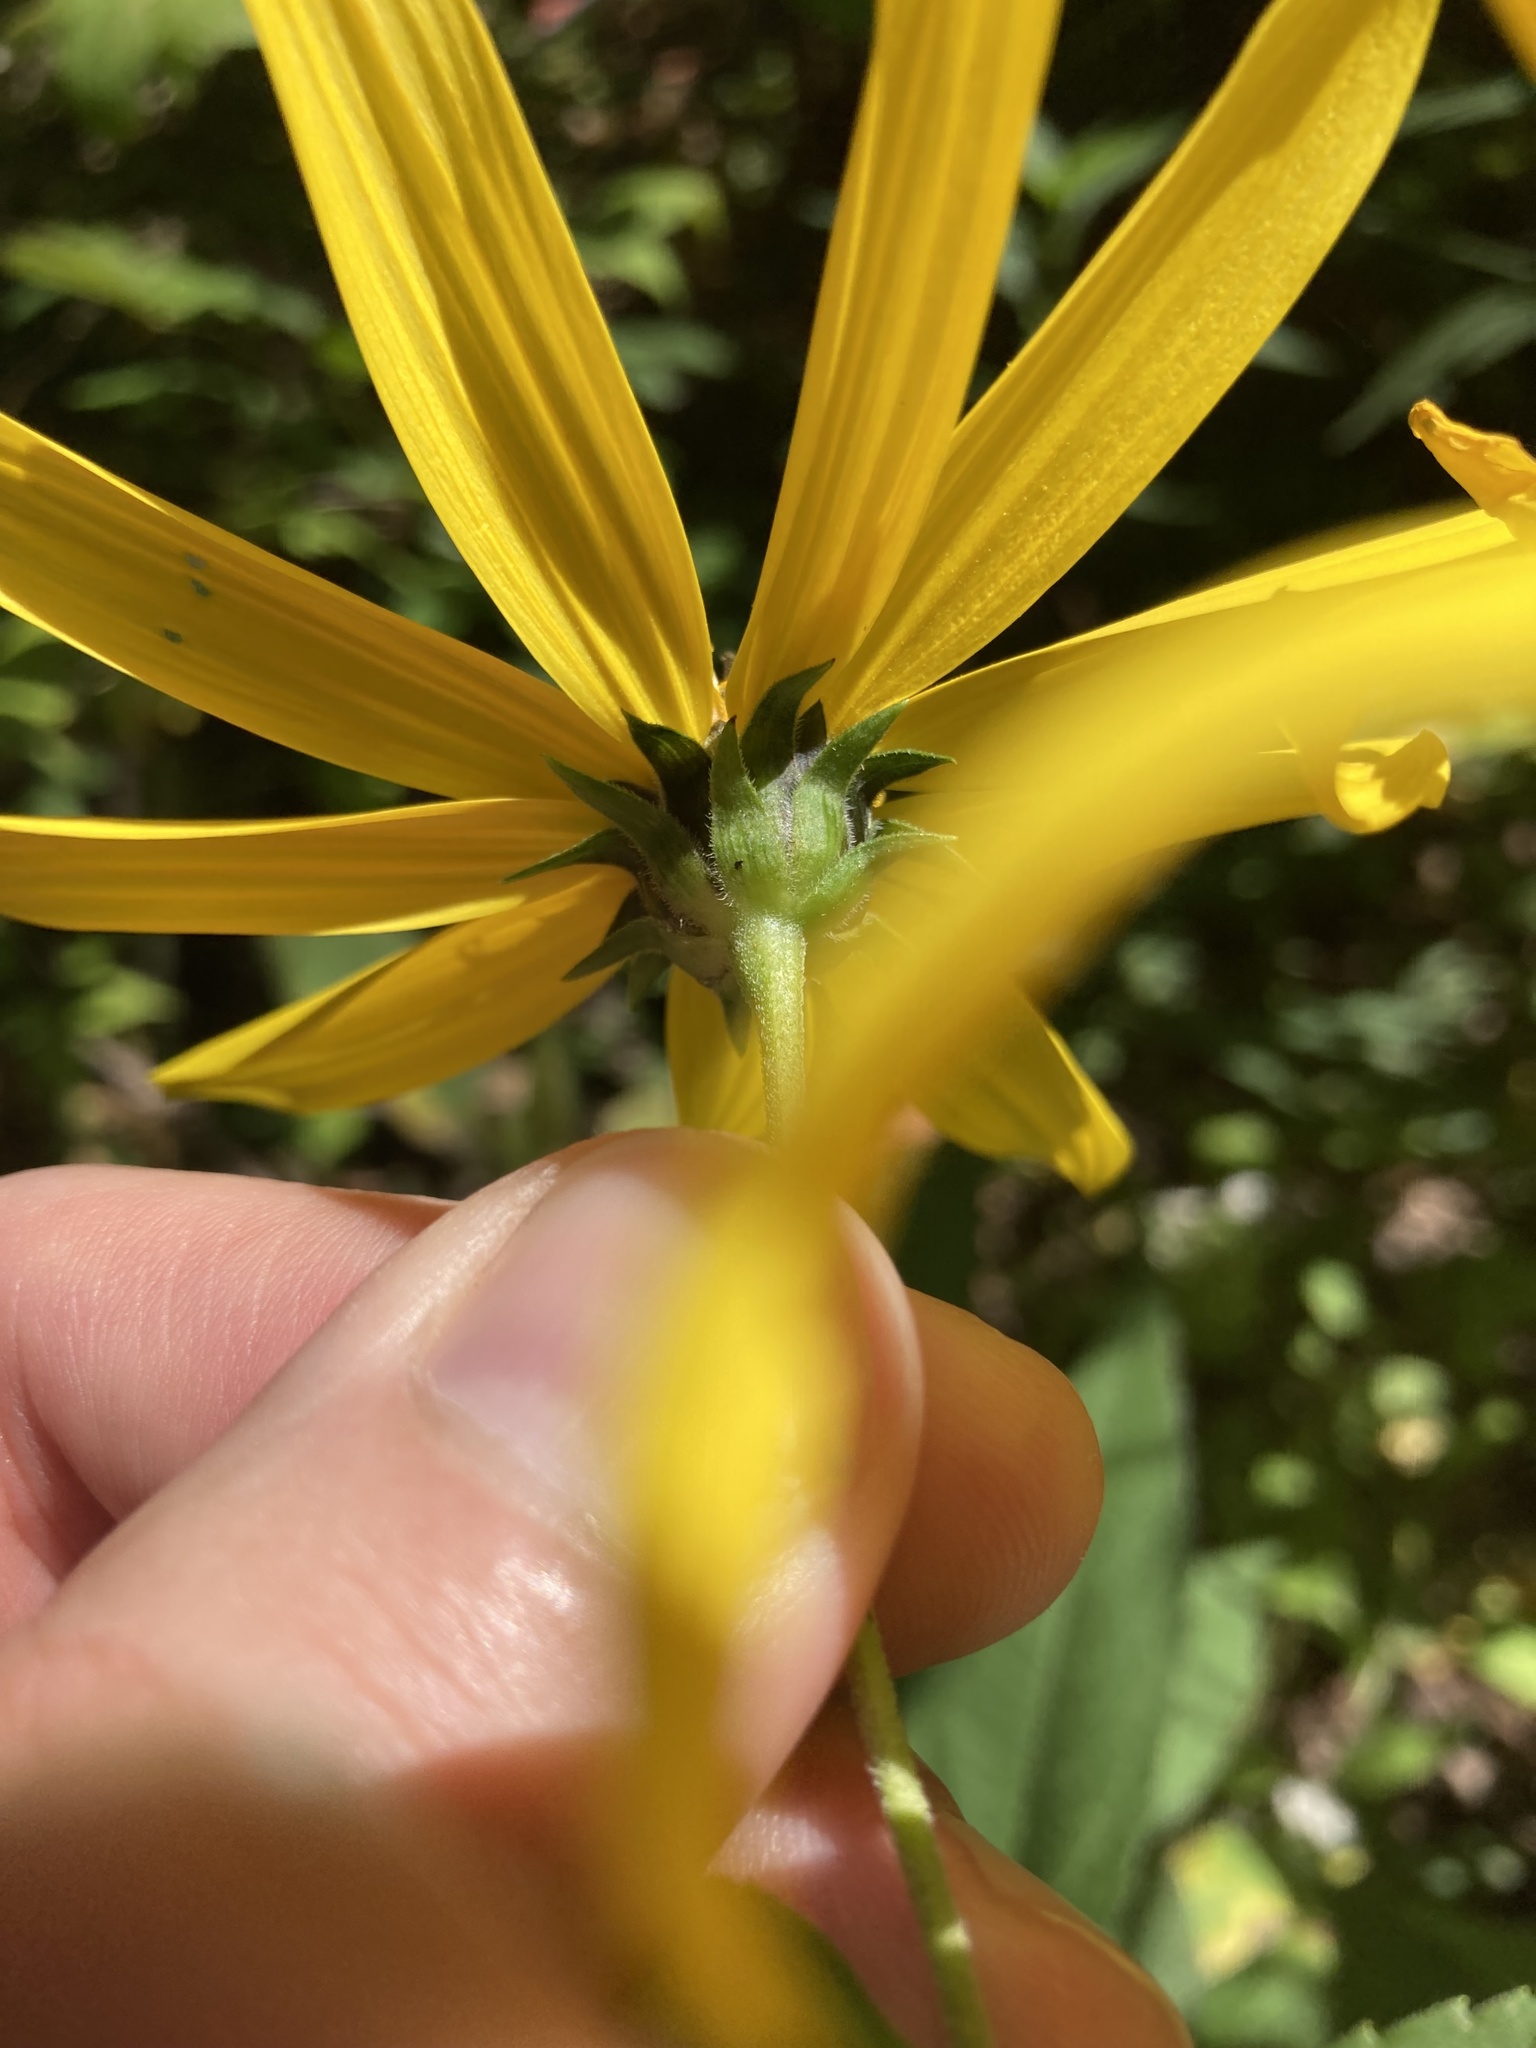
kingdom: Plantae
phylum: Tracheophyta
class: Magnoliopsida
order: Asterales
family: Asteraceae
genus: Helianthus
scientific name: Helianthus strumosus
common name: Pale-leaved sunflower
